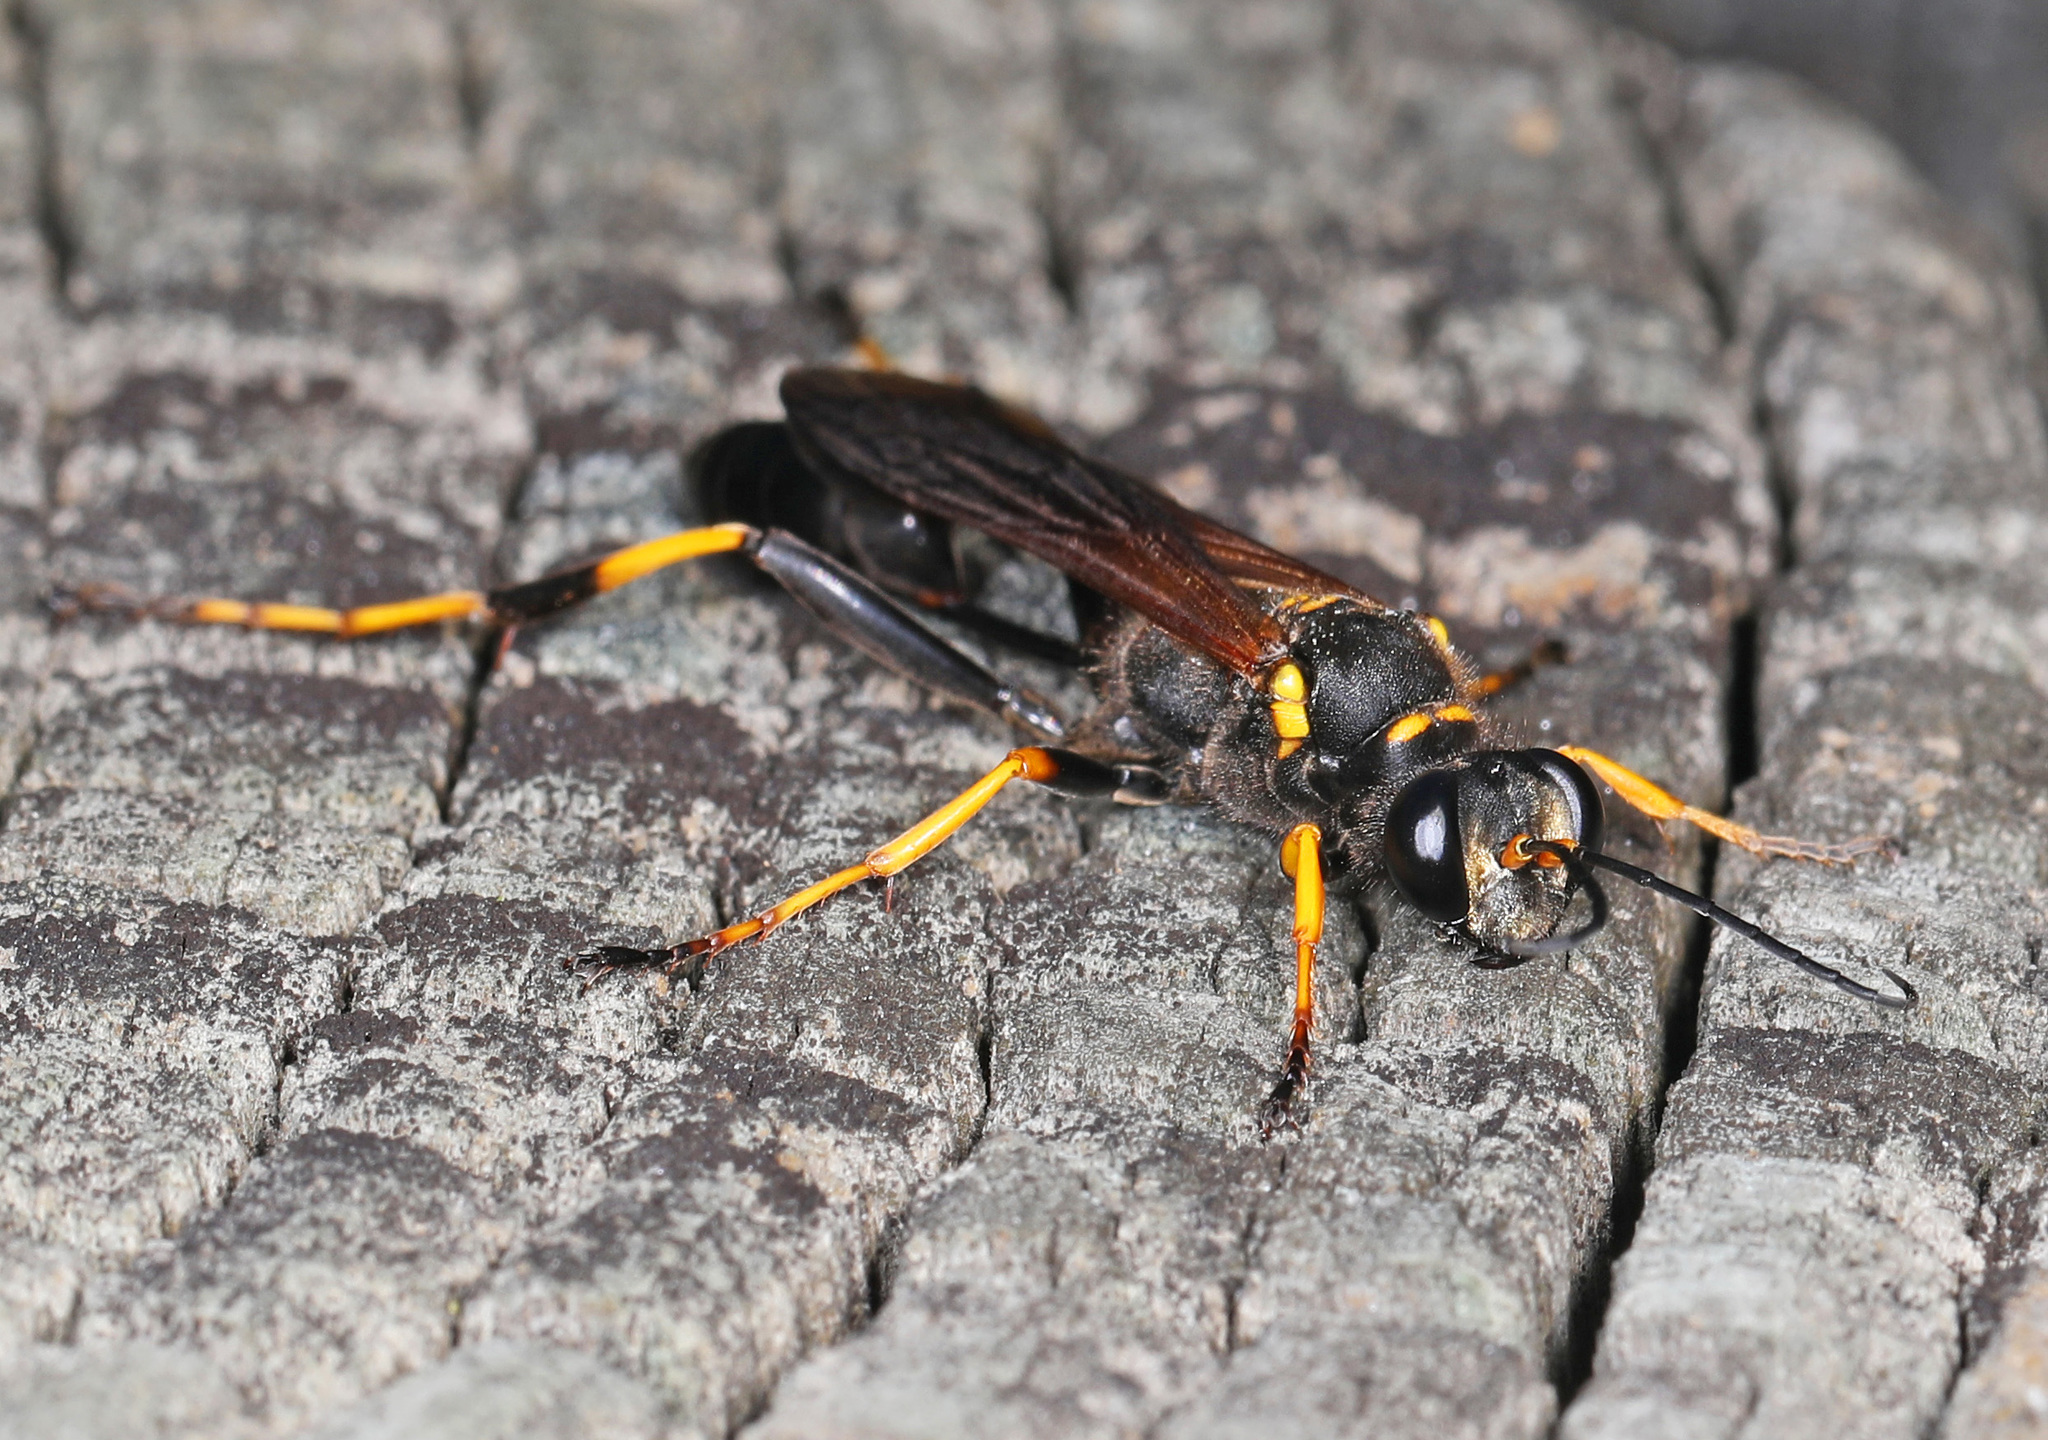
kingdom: Animalia
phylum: Arthropoda
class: Insecta
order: Hymenoptera
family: Sphecidae
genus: Sceliphron
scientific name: Sceliphron caementarium
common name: Mud dauber
